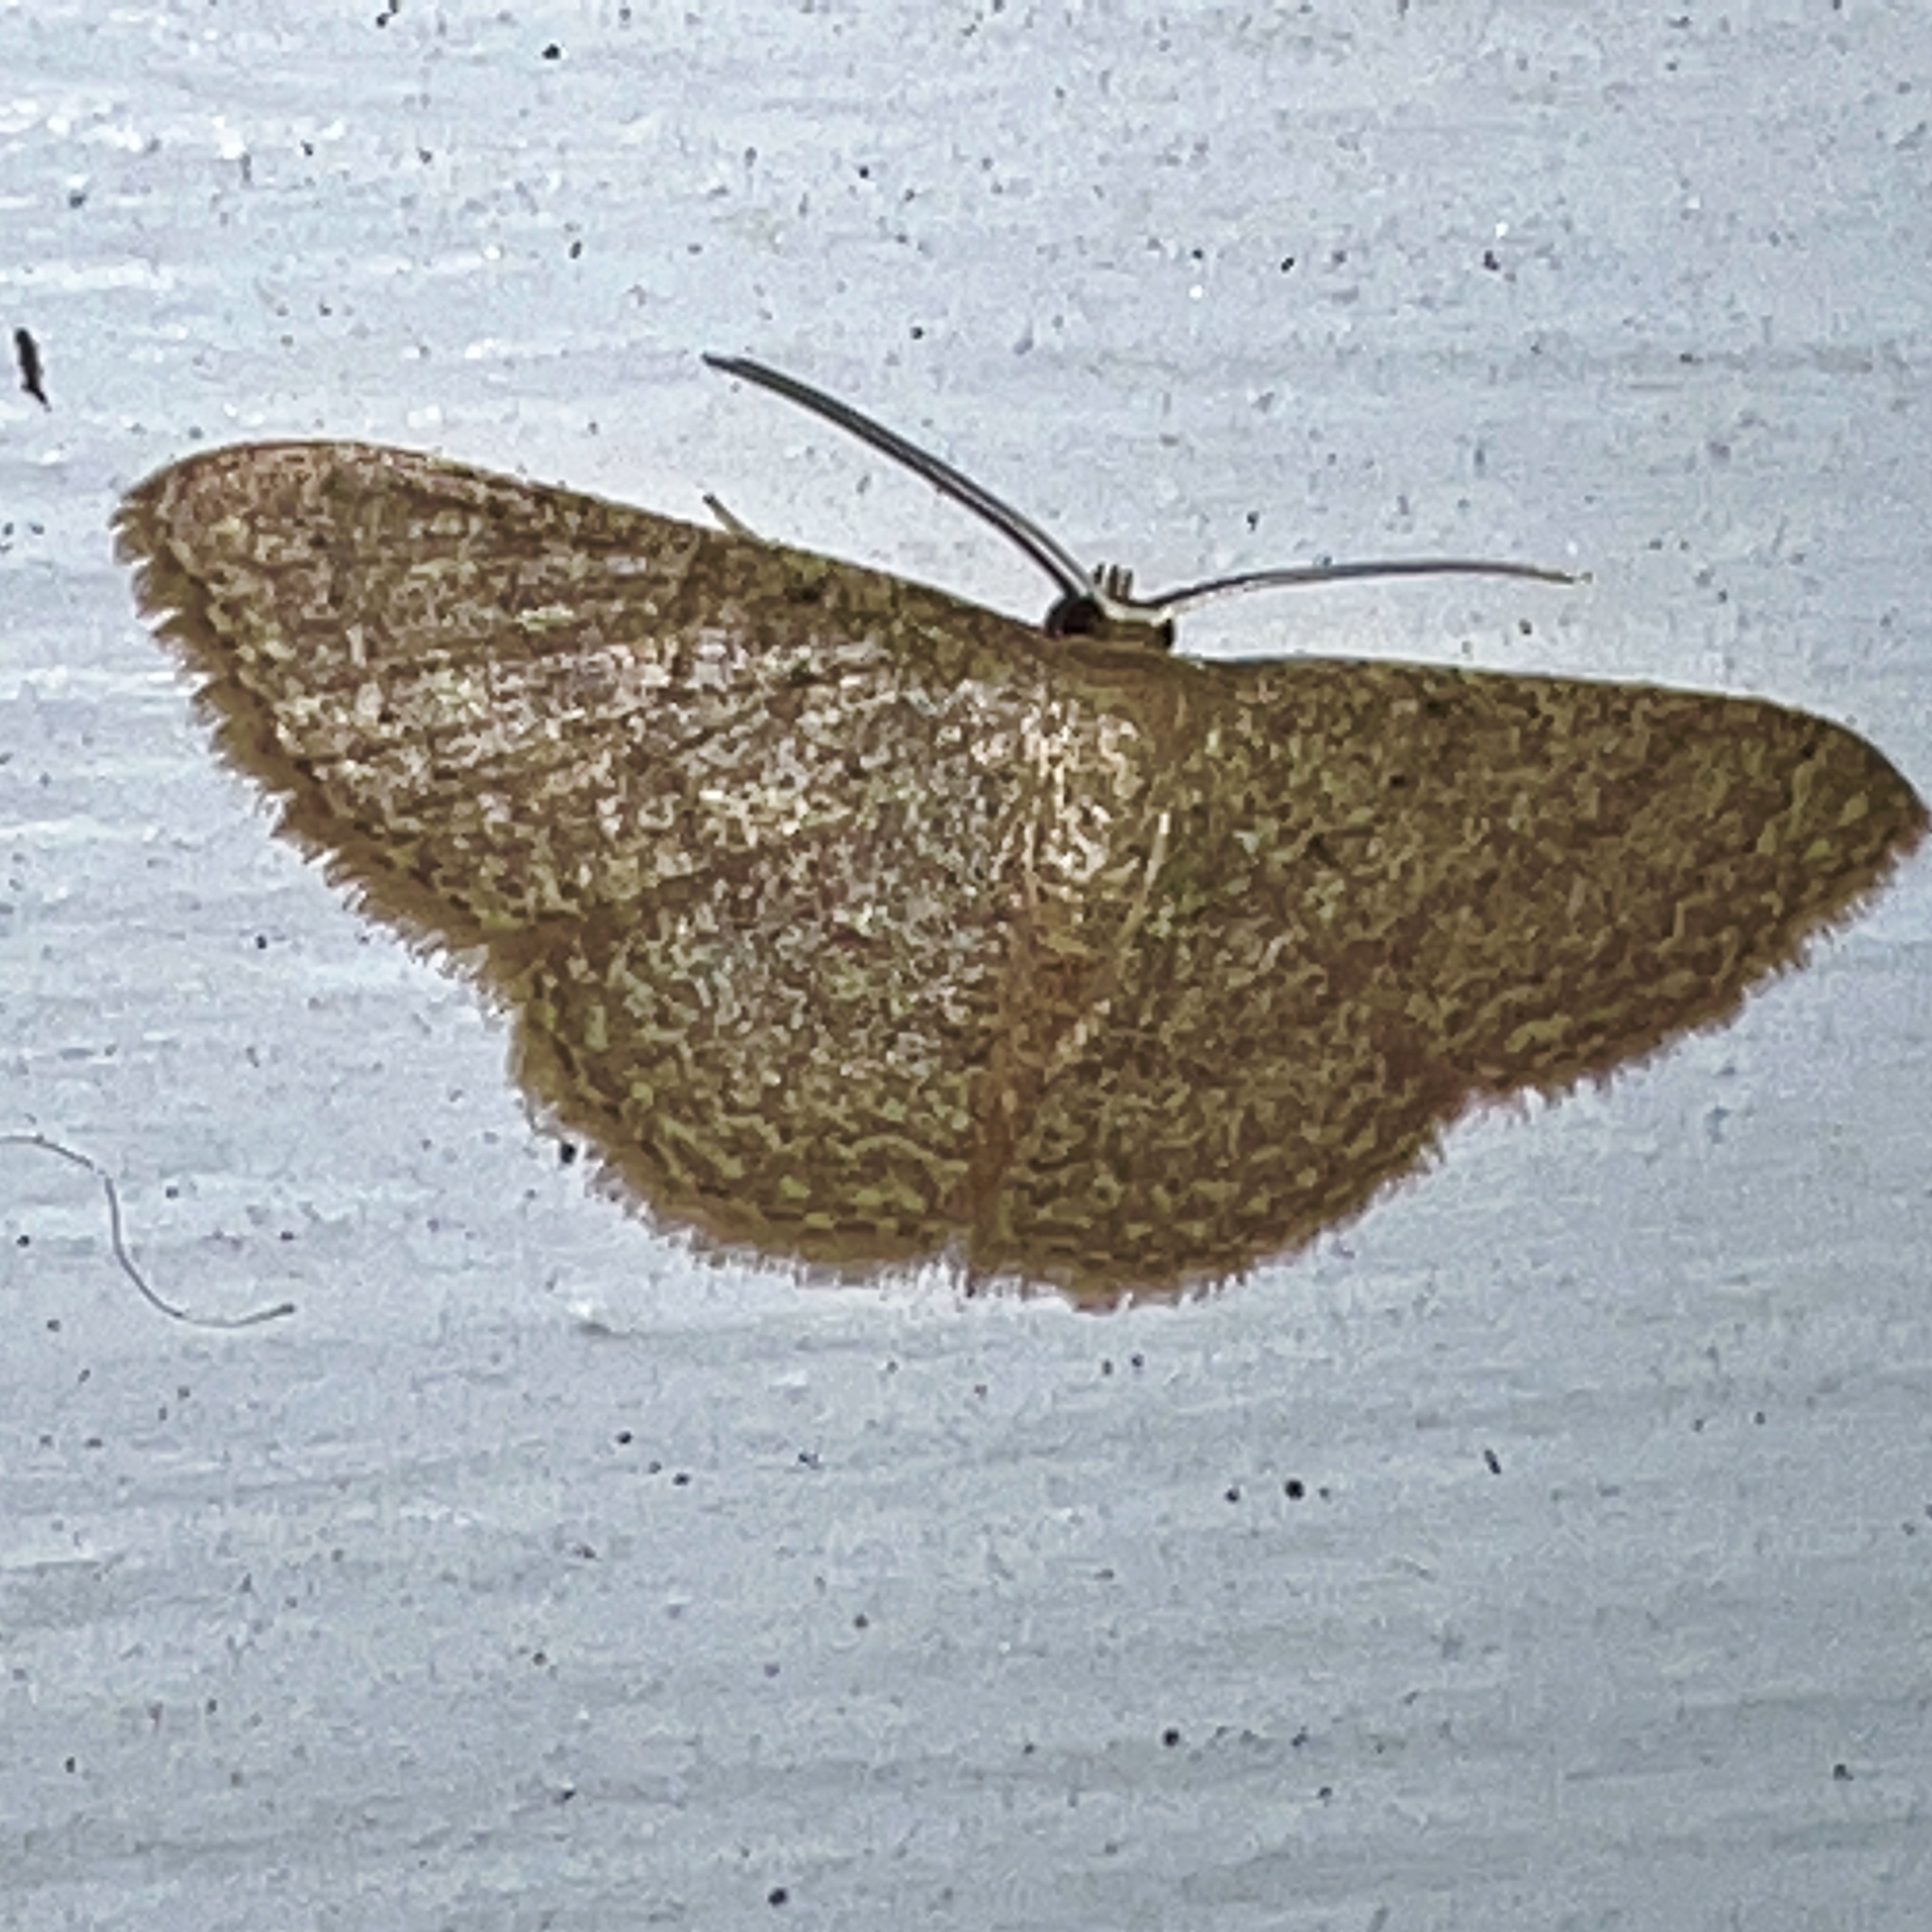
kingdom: Animalia
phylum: Arthropoda
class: Insecta
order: Lepidoptera
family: Geometridae
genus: Pleuroprucha
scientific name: Pleuroprucha insulsaria
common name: Common tan wave
